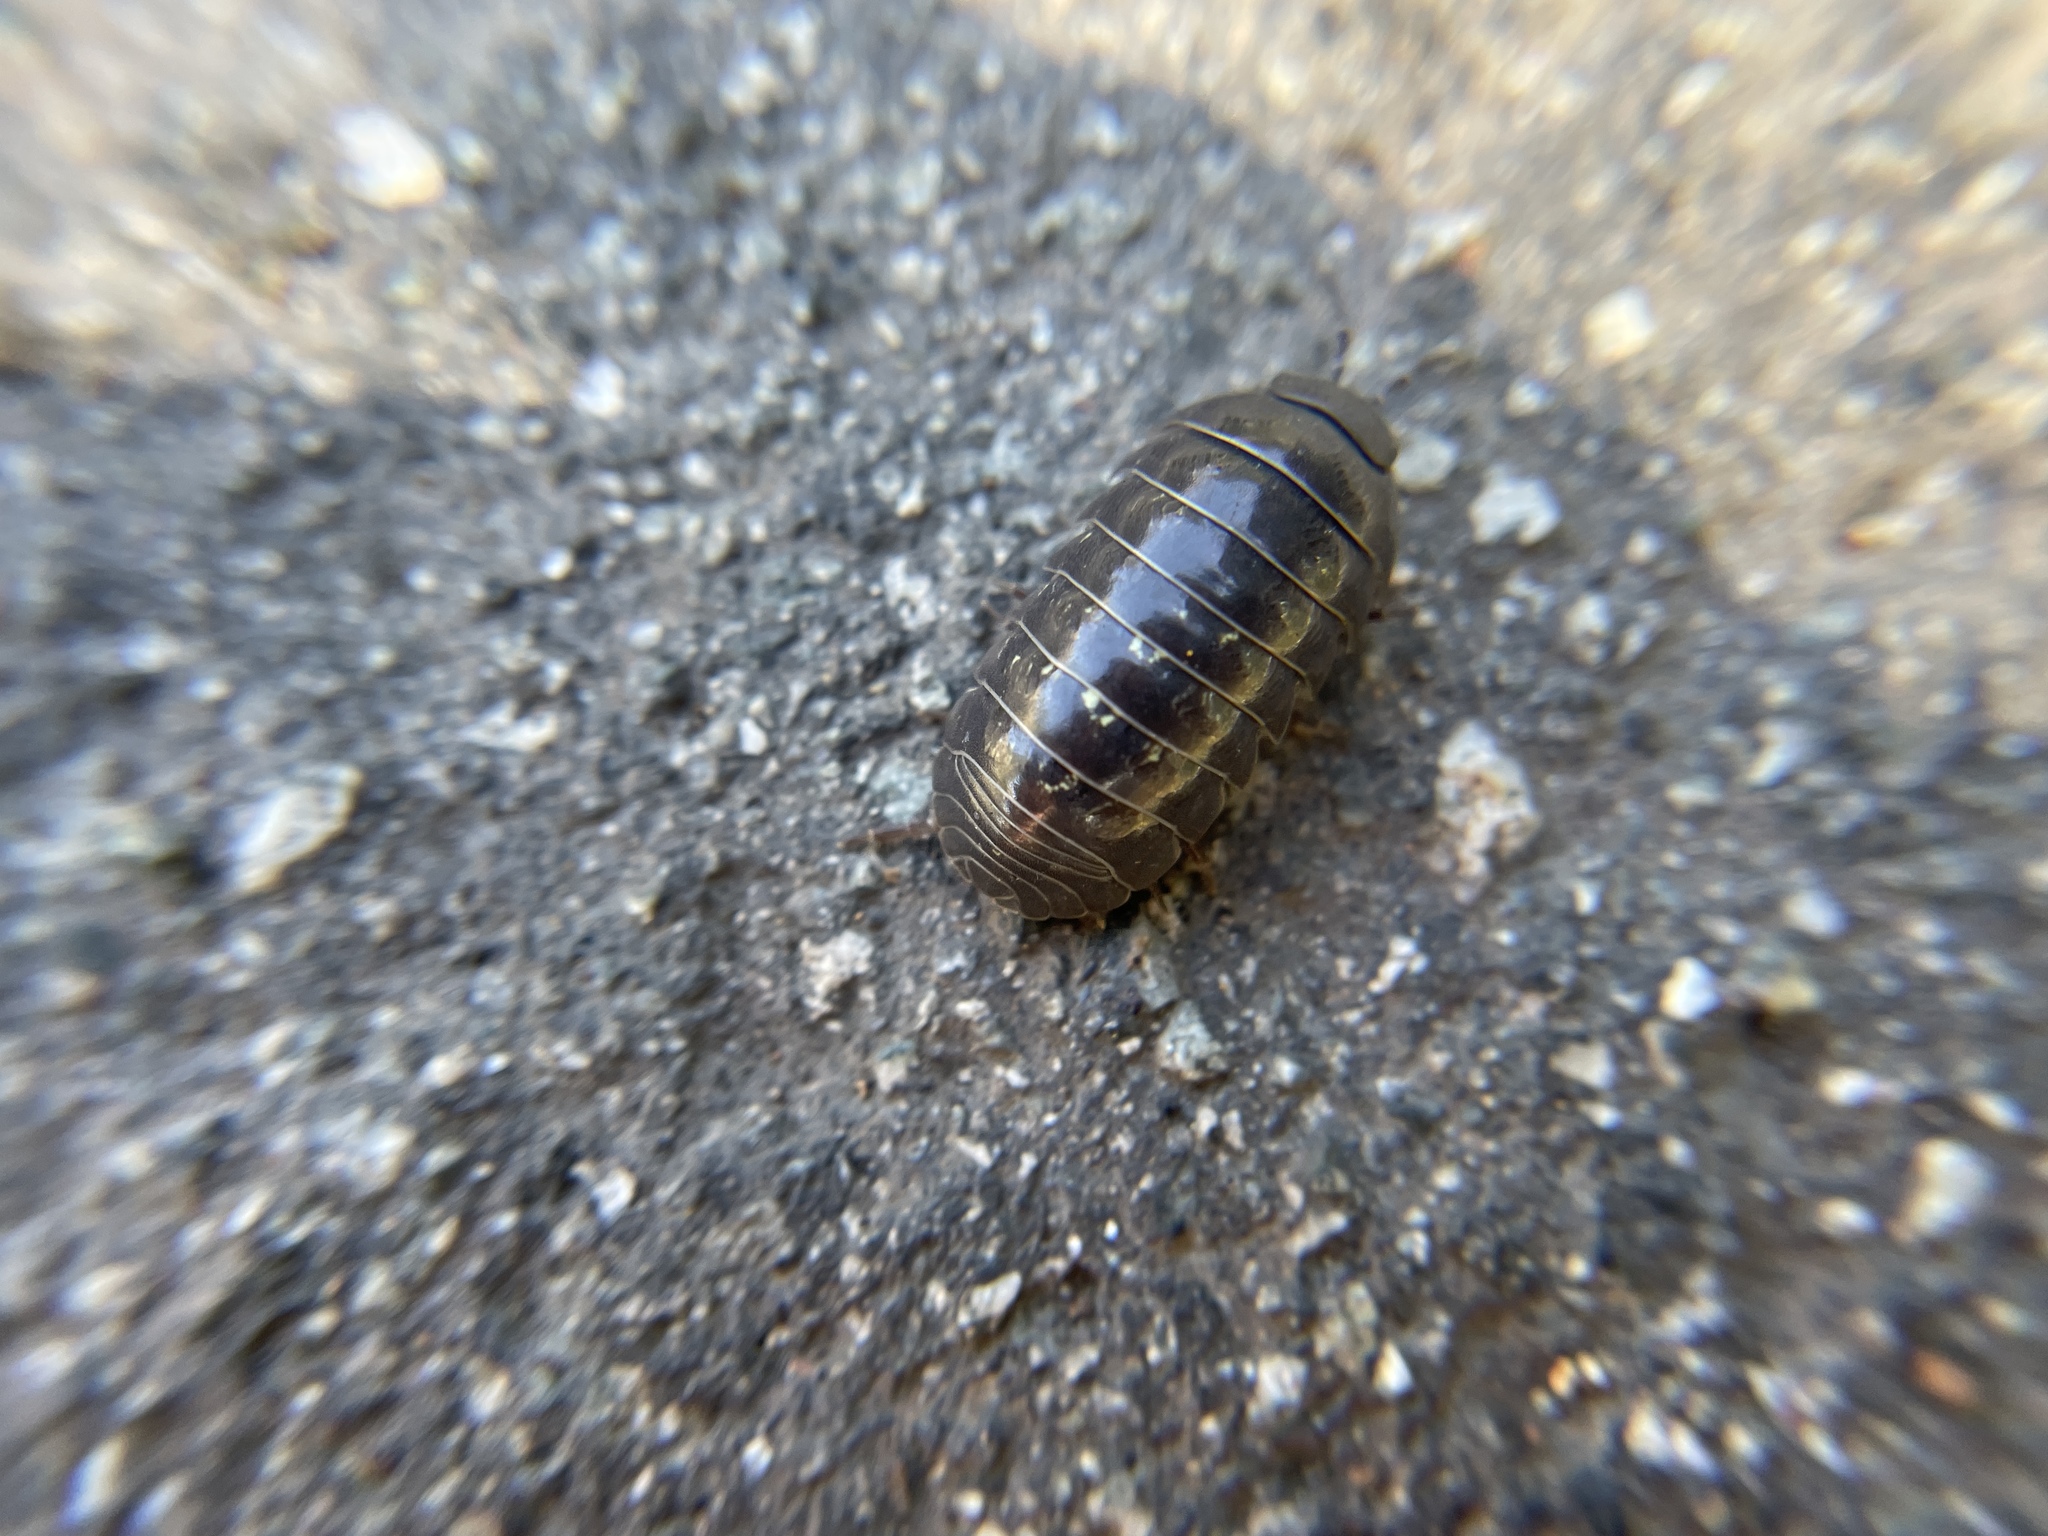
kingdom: Animalia
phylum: Arthropoda
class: Malacostraca
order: Isopoda
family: Armadillidiidae
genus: Armadillidium
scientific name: Armadillidium vulgare
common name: Common pill woodlouse
